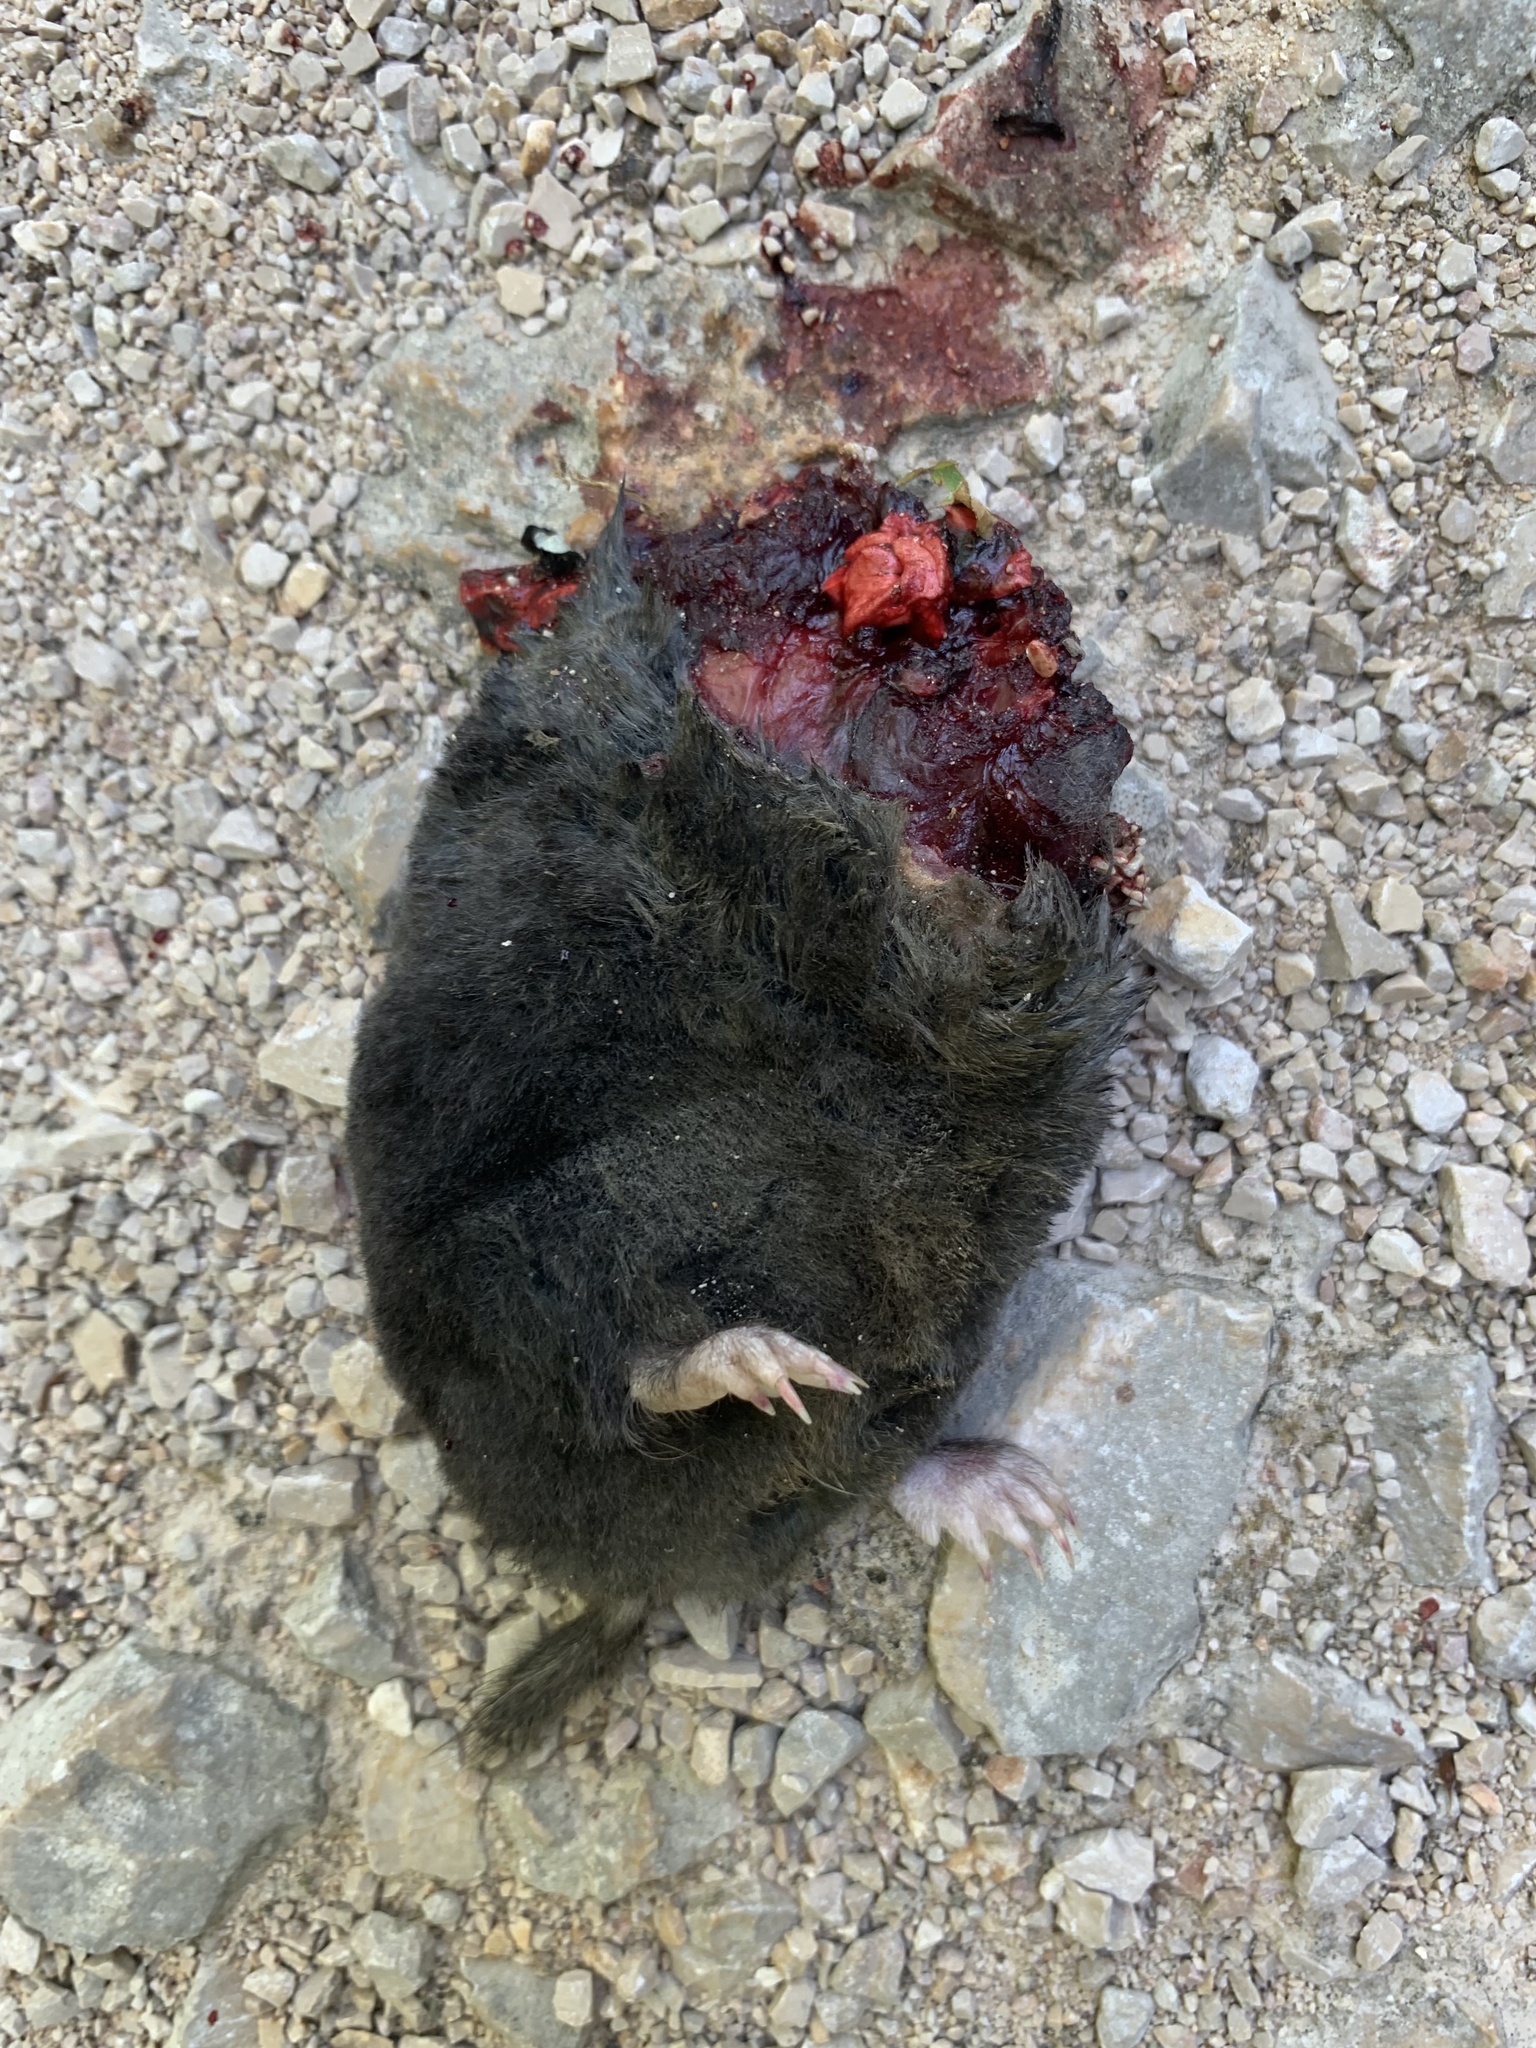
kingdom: Animalia
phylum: Chordata
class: Mammalia
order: Soricomorpha
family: Talpidae
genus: Talpa
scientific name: Talpa europaea
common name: European mole
